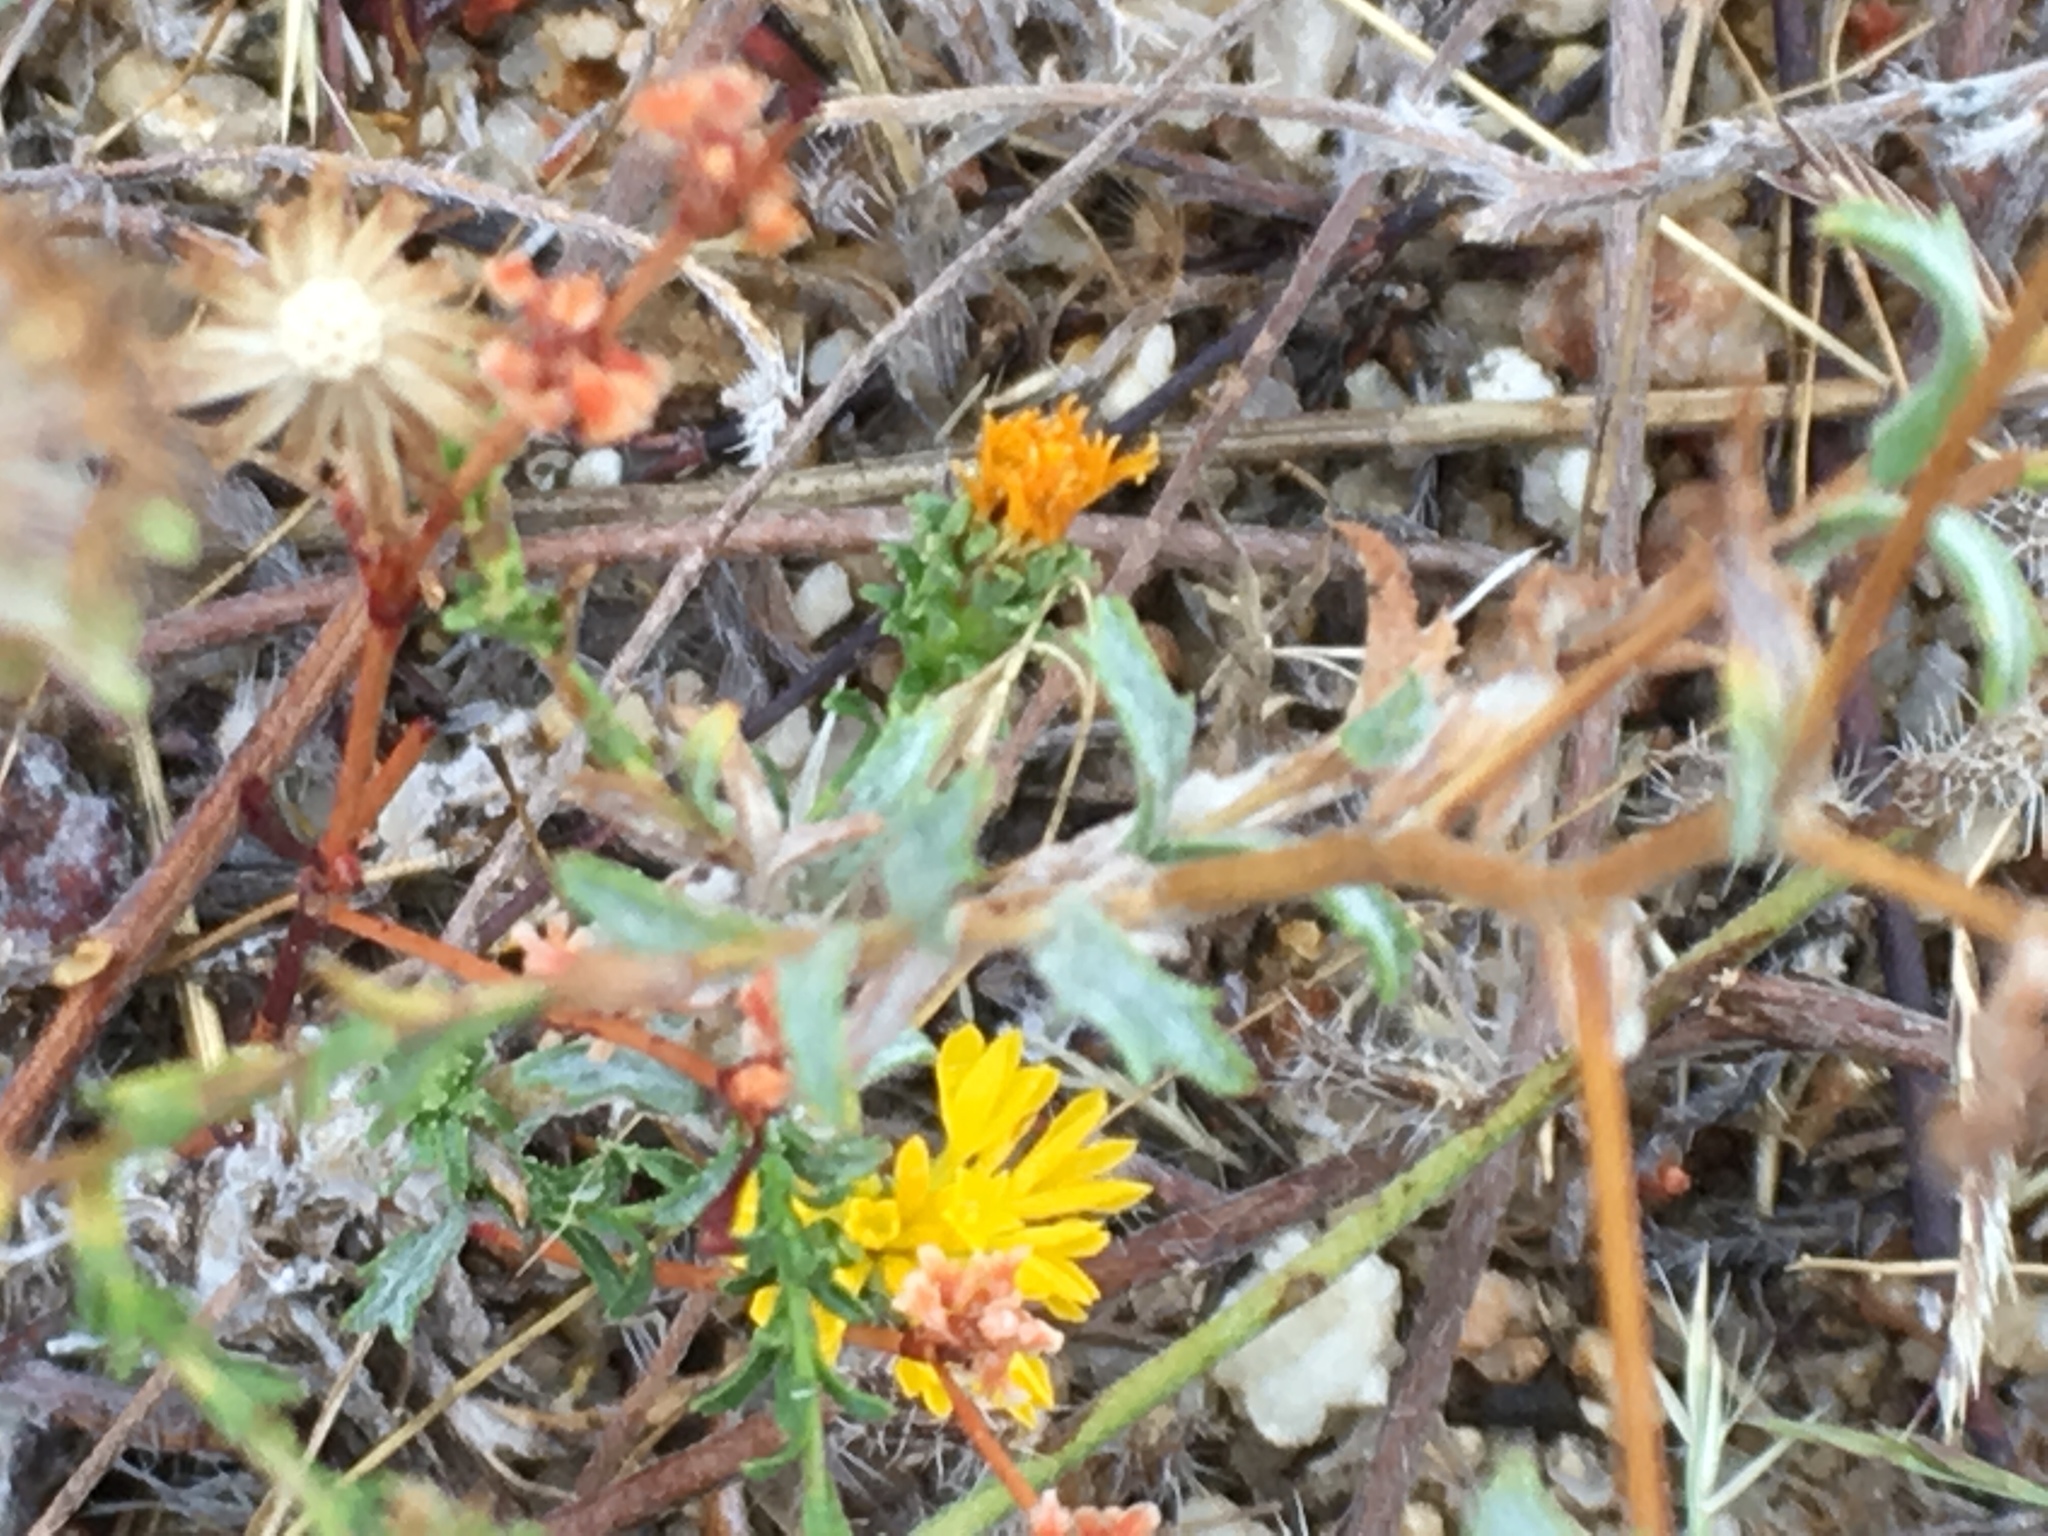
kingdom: Plantae
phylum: Tracheophyta
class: Magnoliopsida
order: Asterales
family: Asteraceae
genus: Lessingia
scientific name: Lessingia glandulifera
